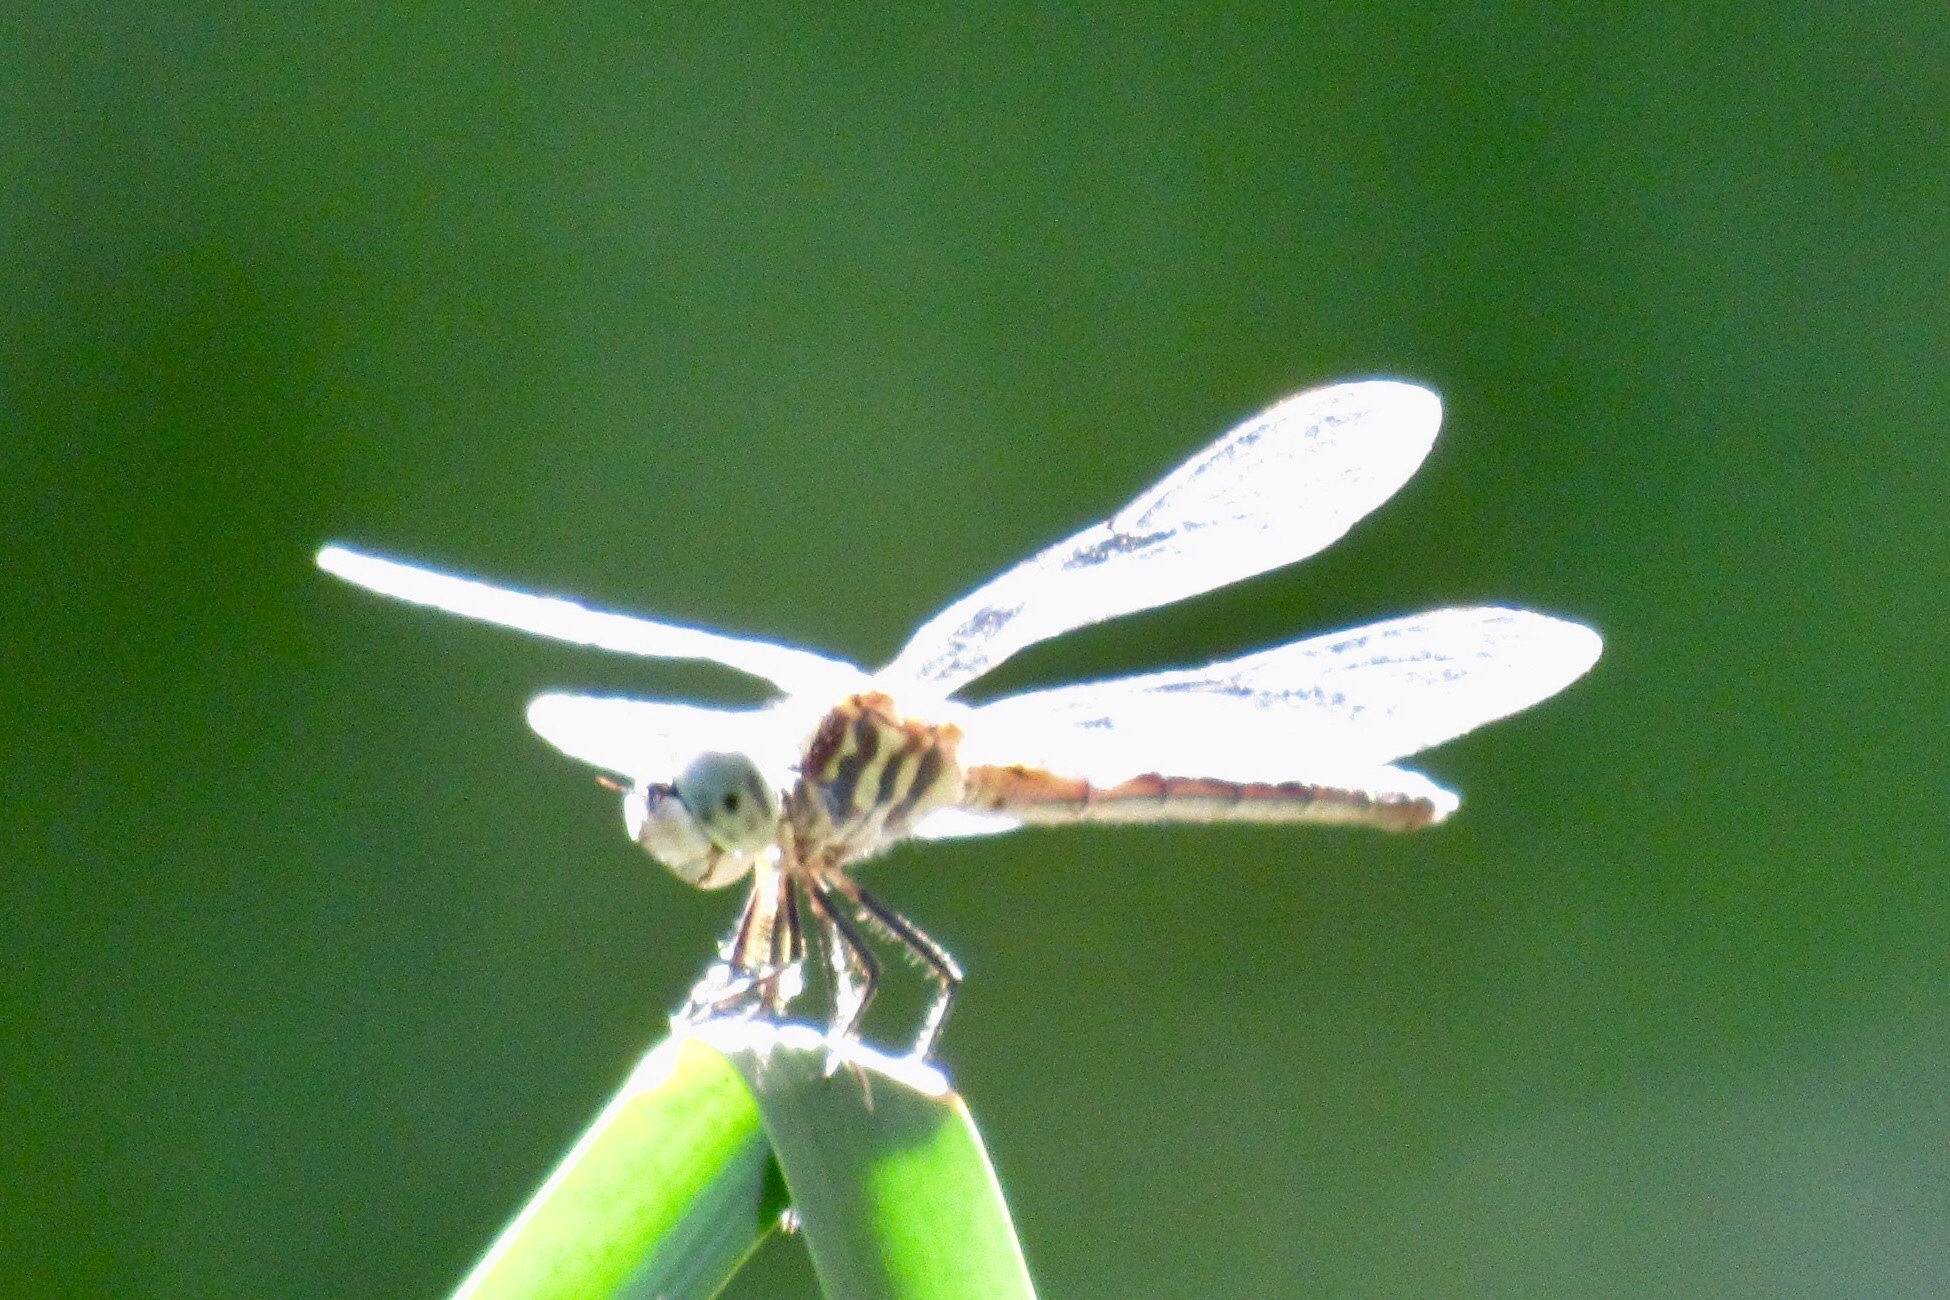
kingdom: Animalia
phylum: Arthropoda
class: Insecta
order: Odonata
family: Libellulidae
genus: Pachydiplax
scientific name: Pachydiplax longipennis
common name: Blue dasher
